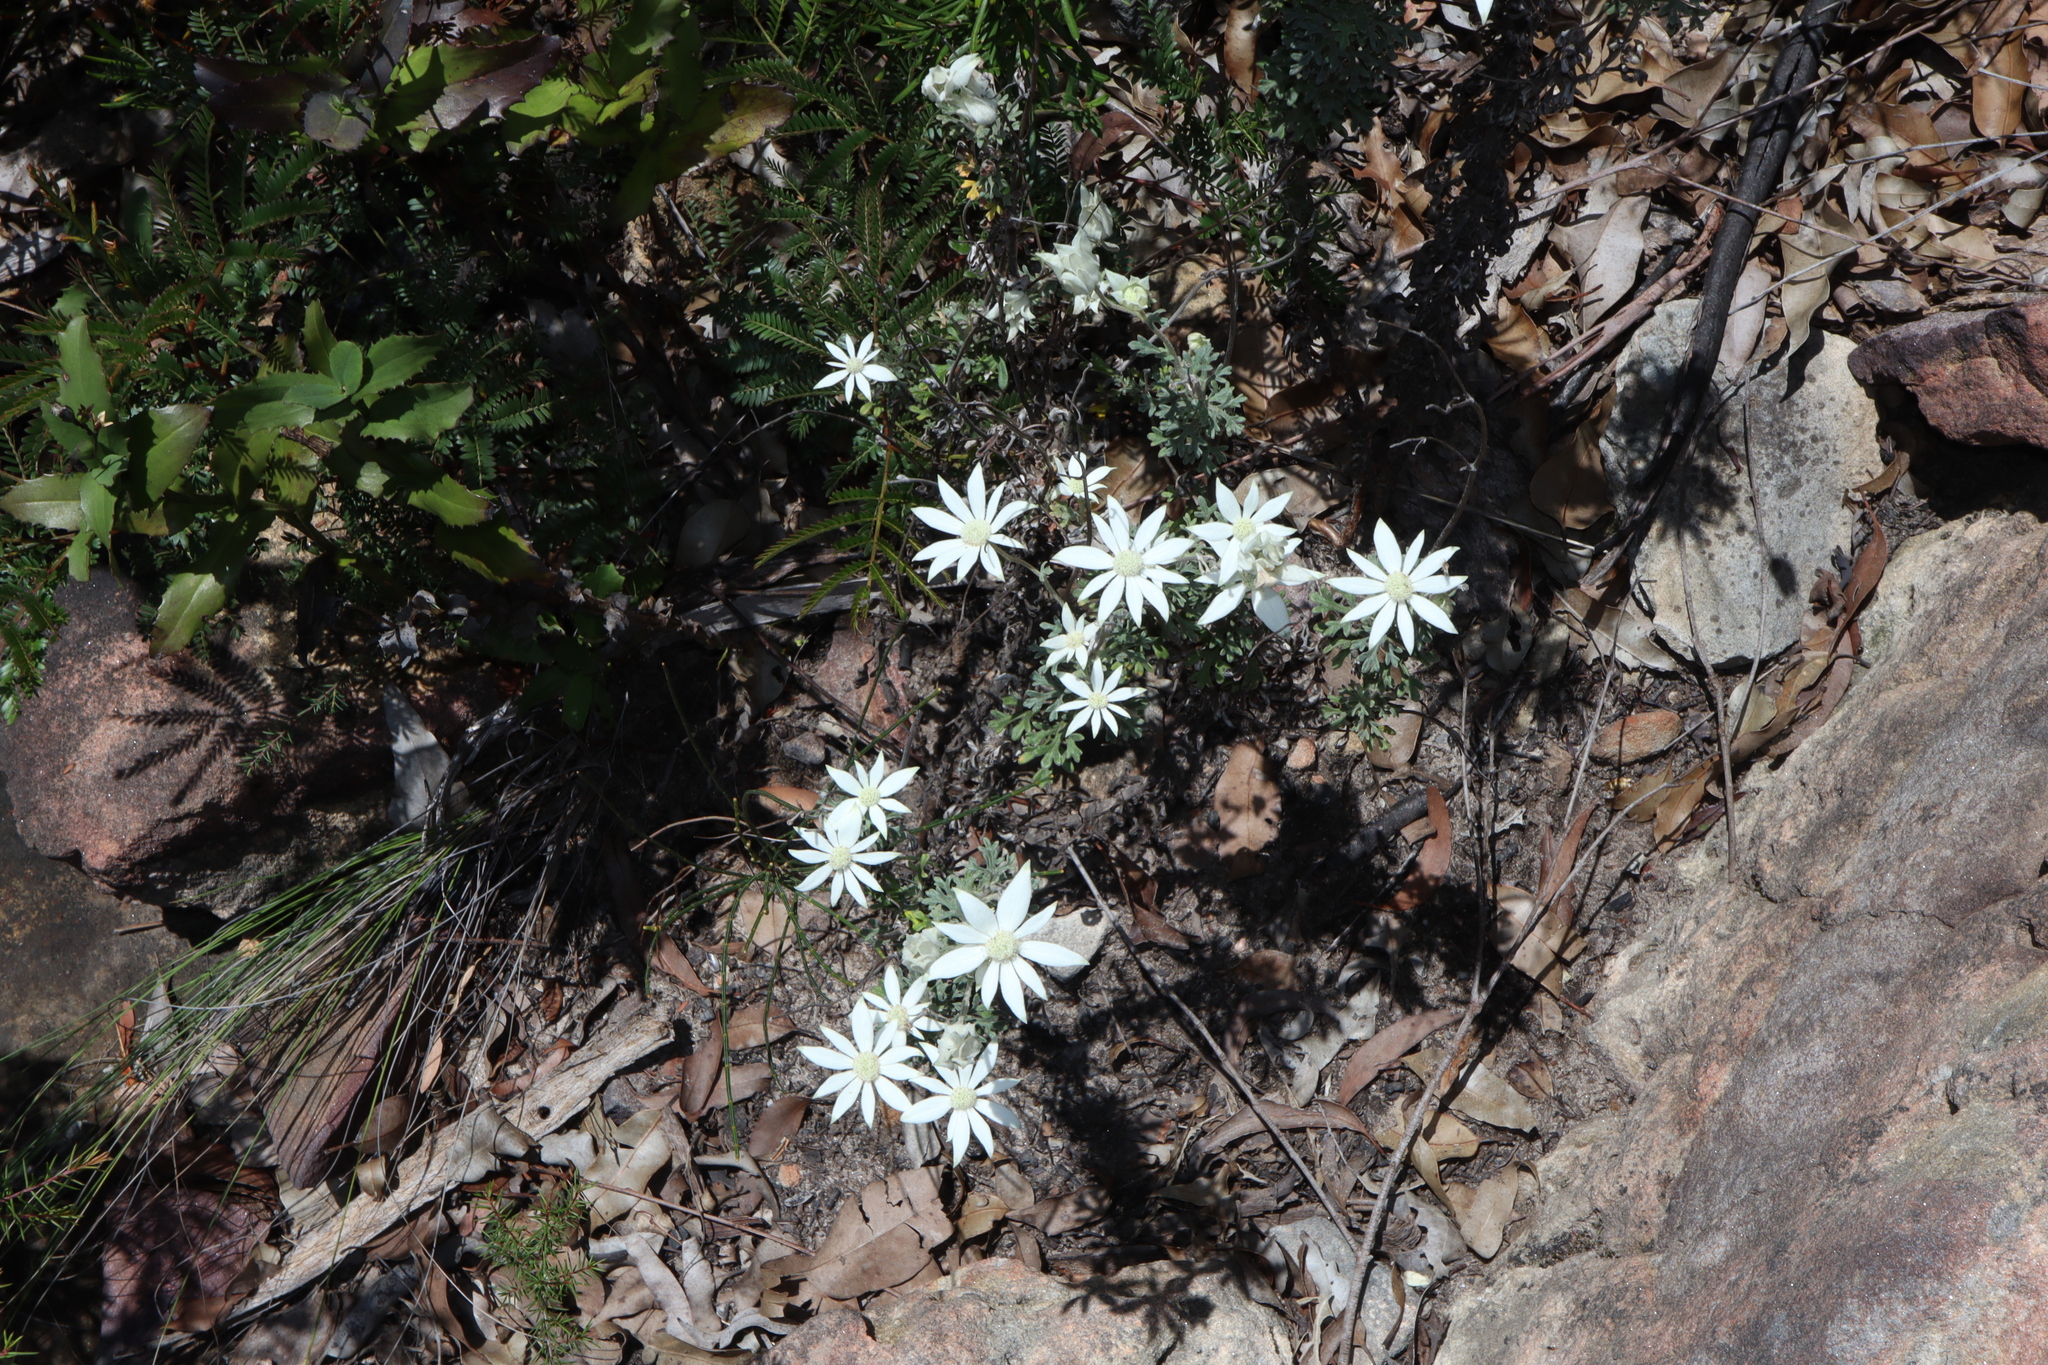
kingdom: Plantae
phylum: Tracheophyta
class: Magnoliopsida
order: Apiales
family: Apiaceae
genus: Actinotus
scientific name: Actinotus helianthi
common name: Flannel-flower
